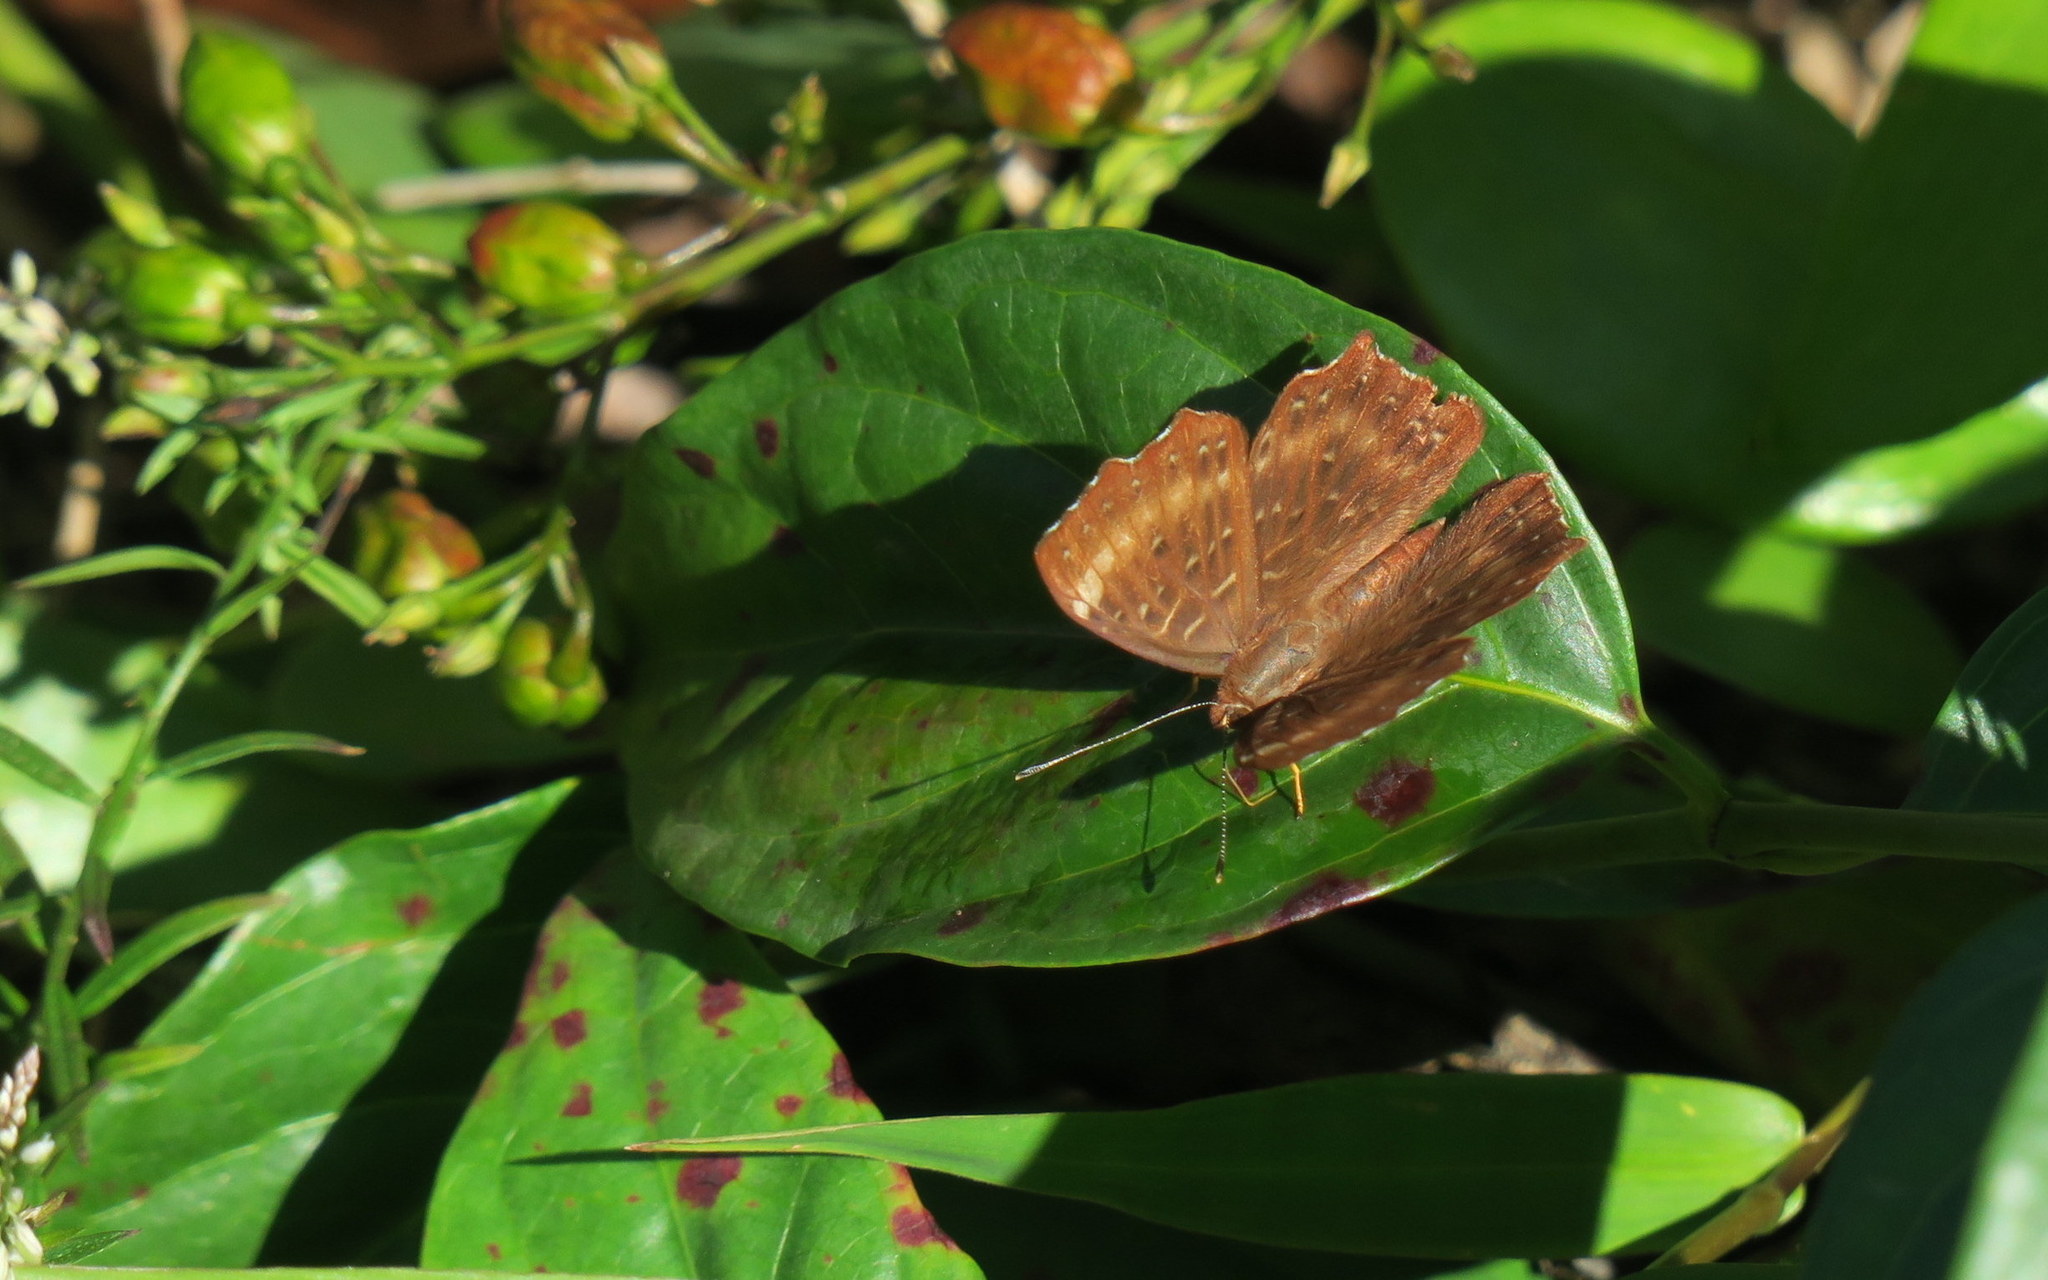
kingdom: Animalia
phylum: Arthropoda
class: Insecta
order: Lepidoptera
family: Riodinidae
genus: Zemeros
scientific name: Zemeros flegyas
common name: Punchinello
